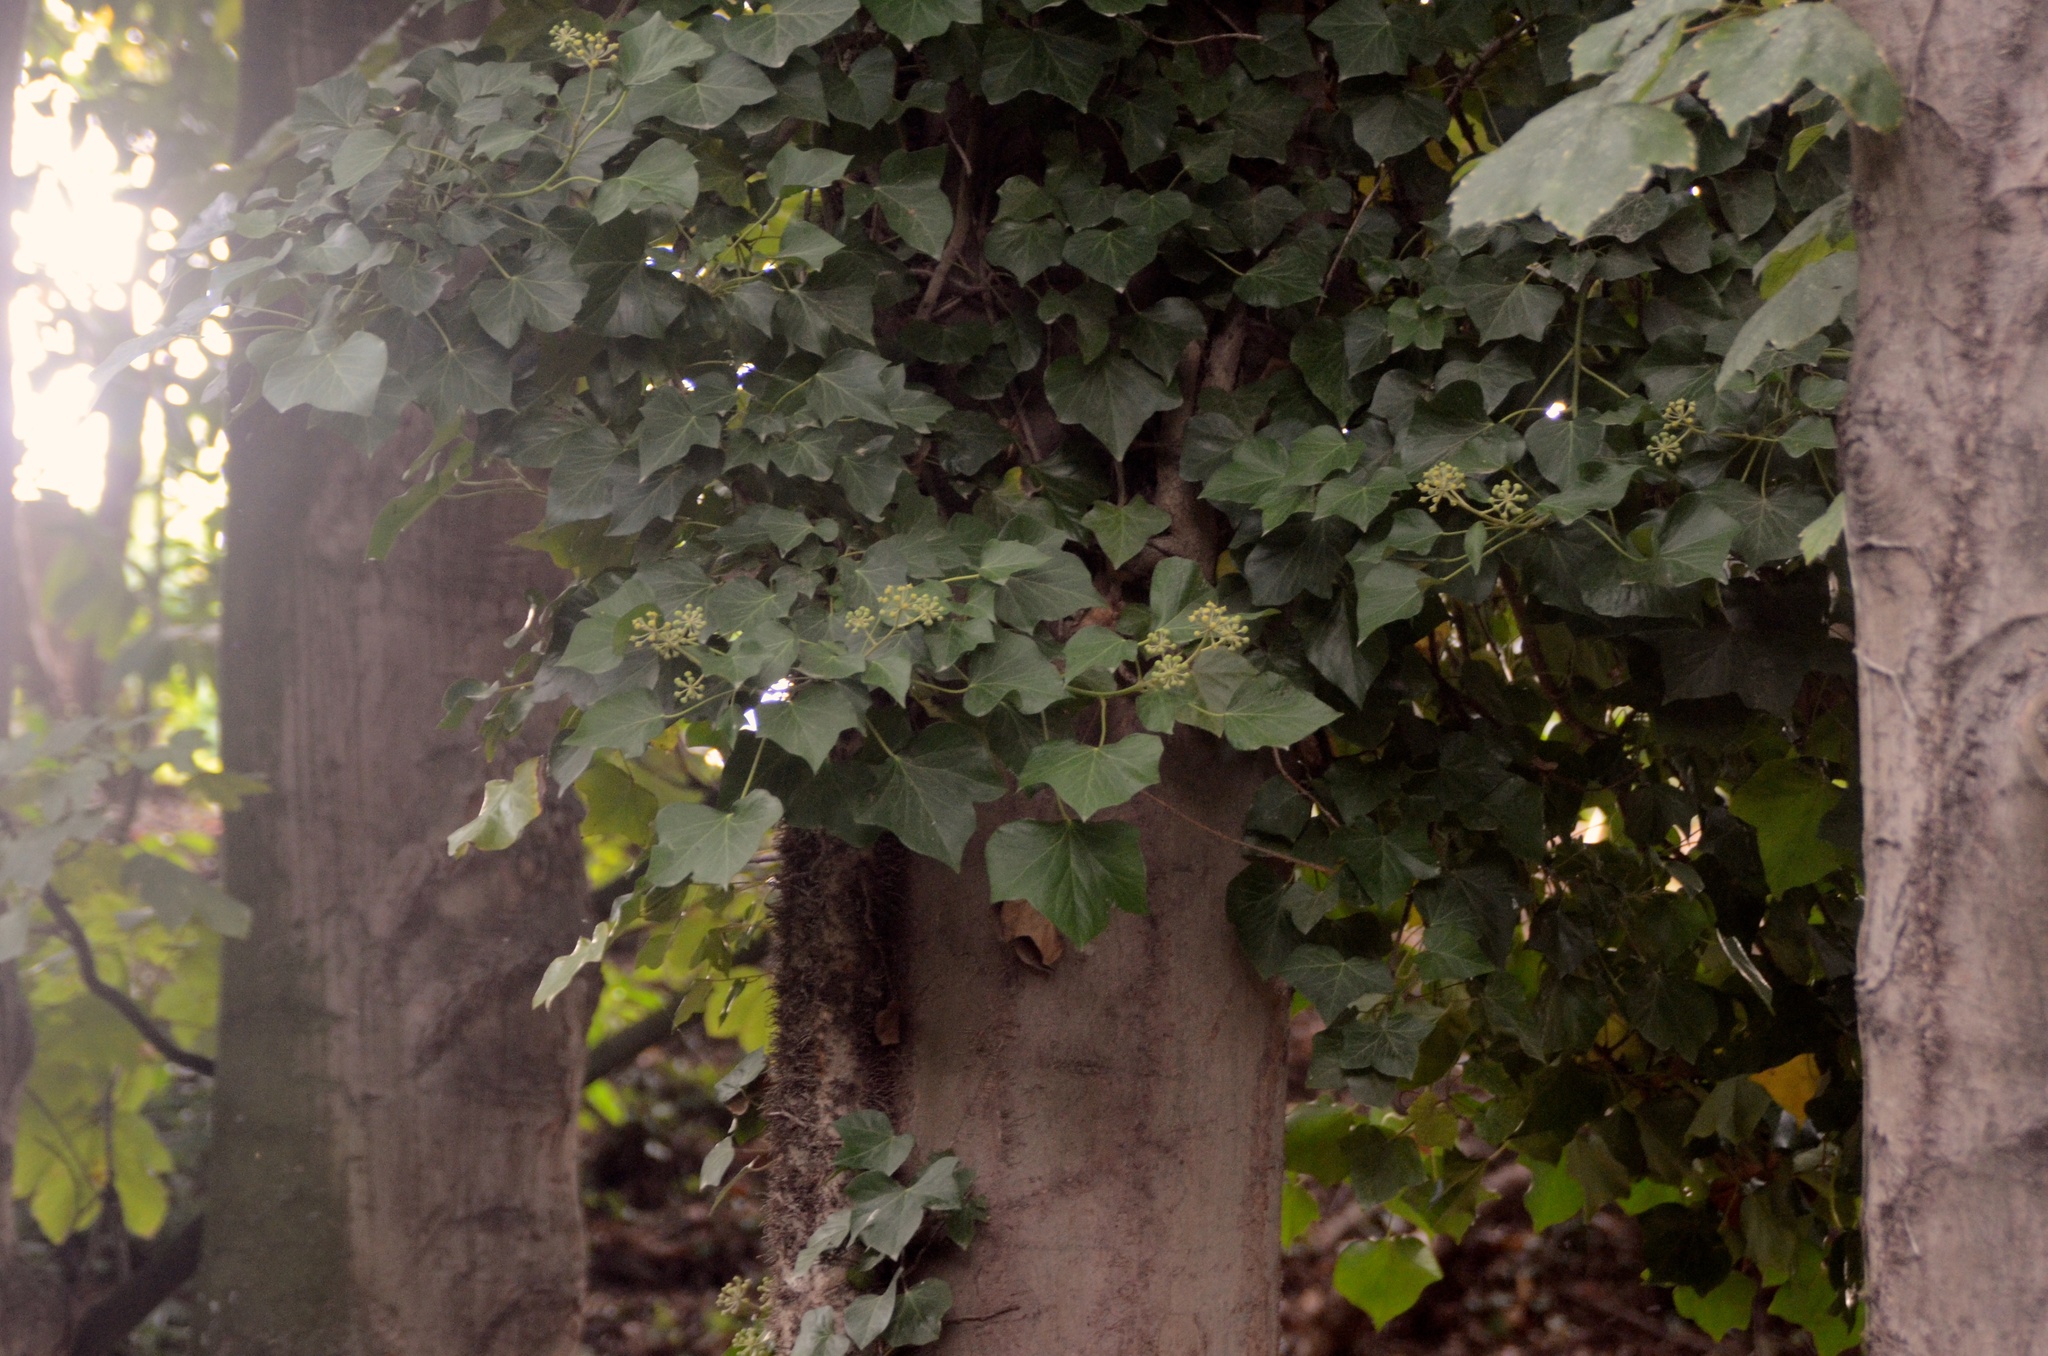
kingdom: Plantae
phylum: Tracheophyta
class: Magnoliopsida
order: Apiales
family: Araliaceae
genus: Hedera
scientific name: Hedera helix
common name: Ivy
